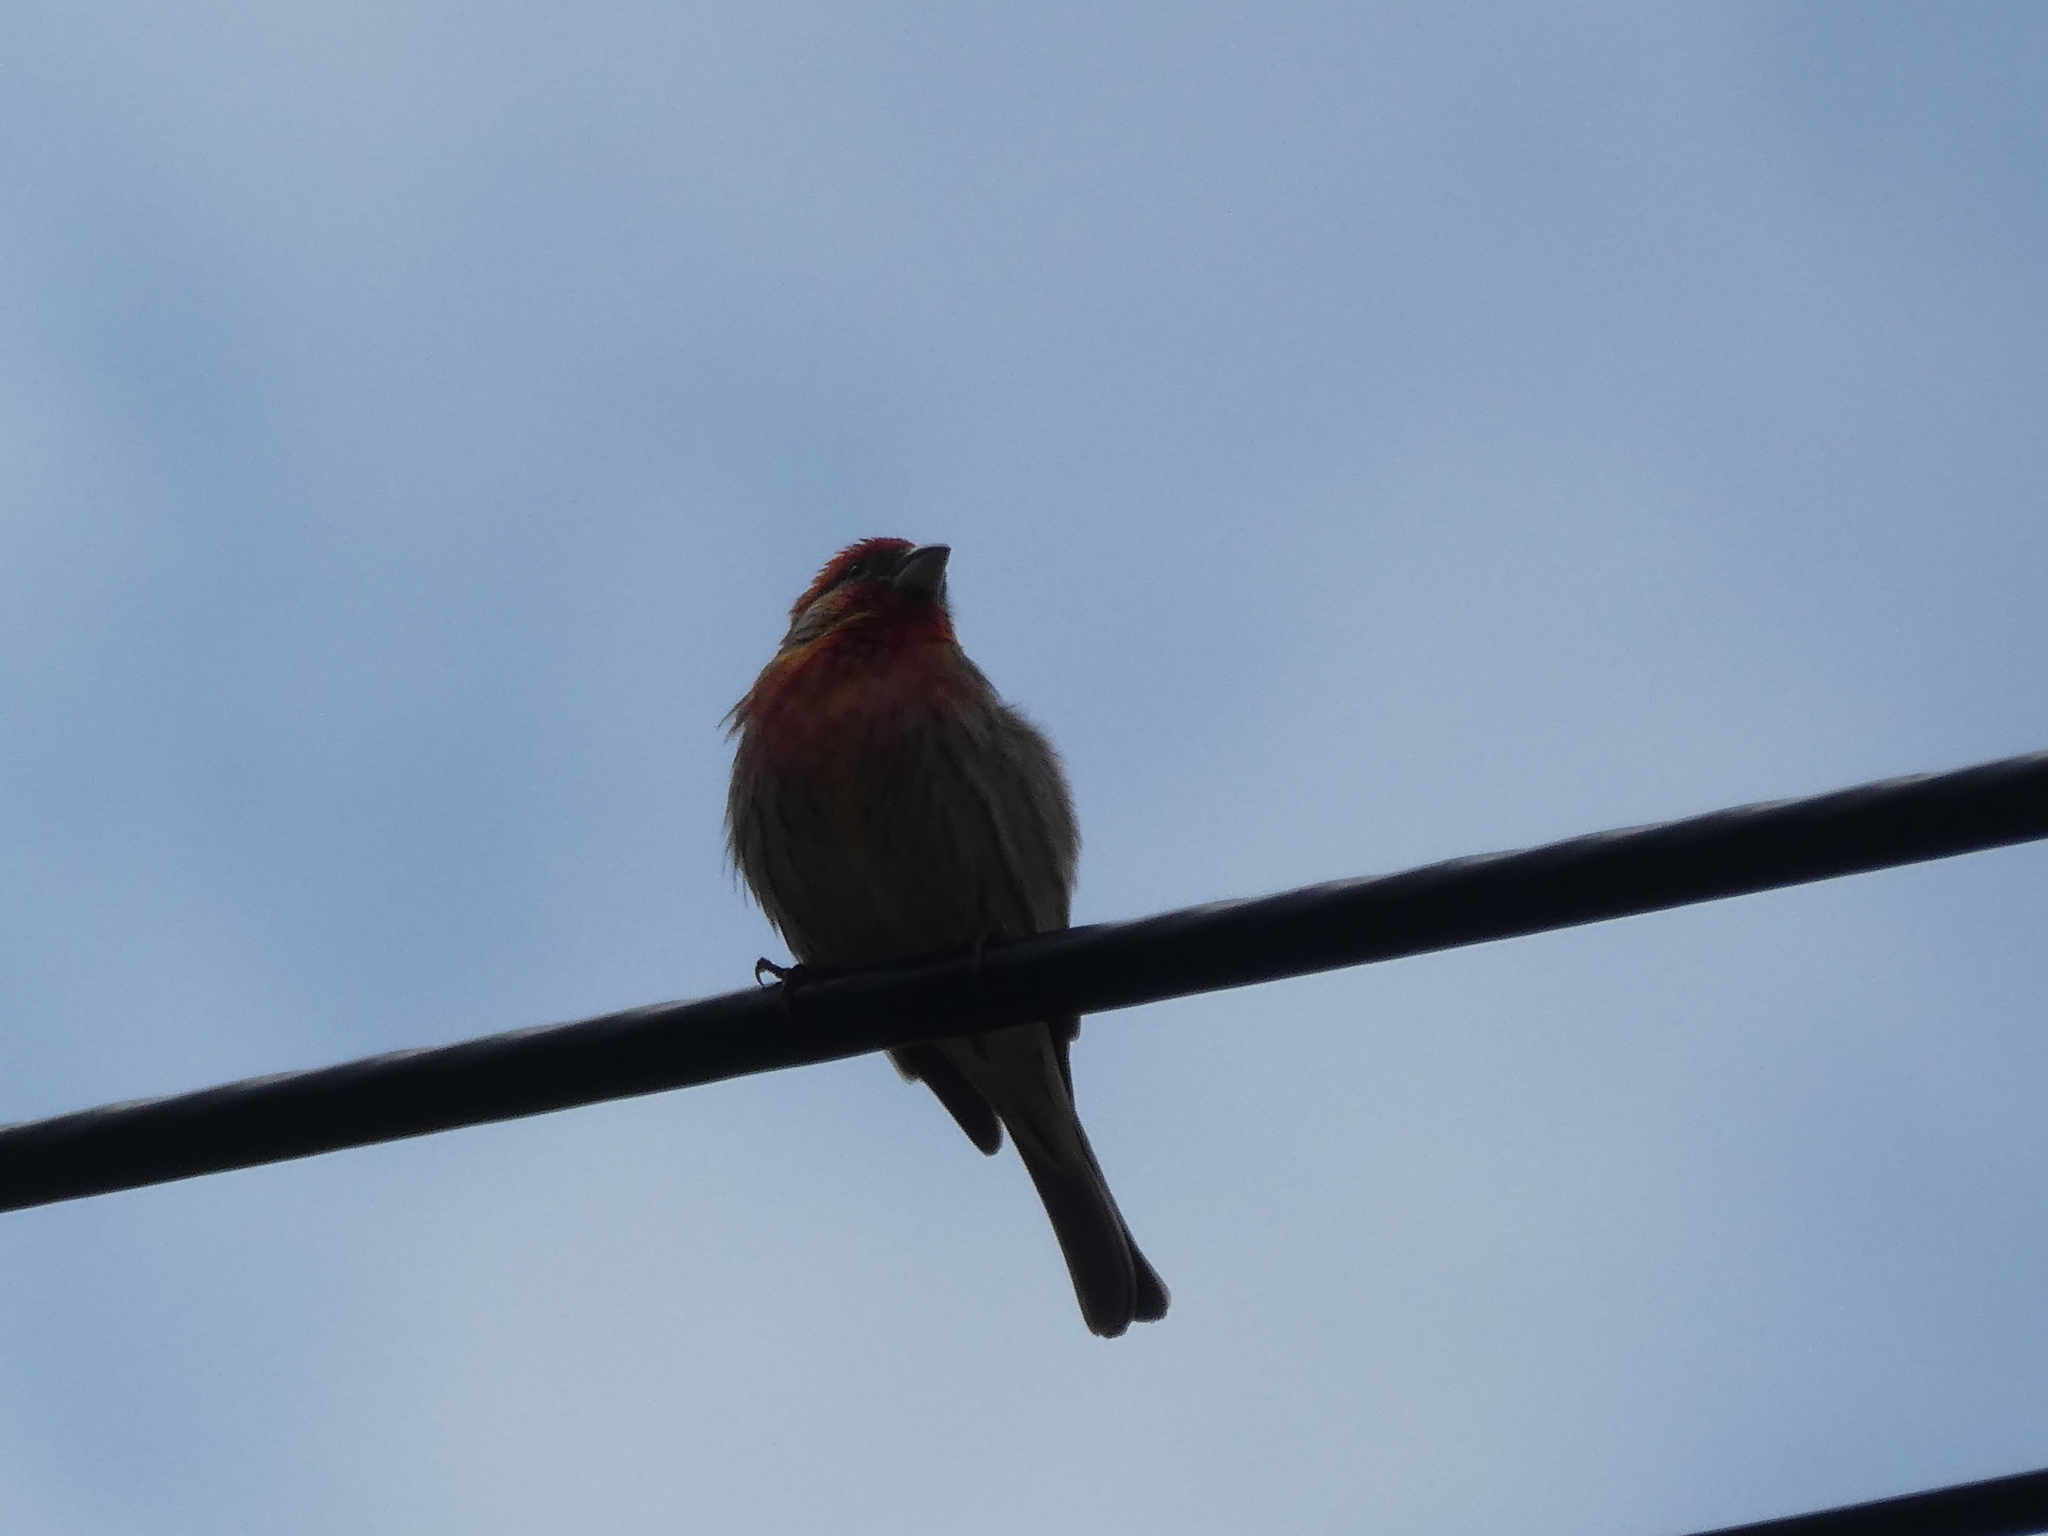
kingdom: Animalia
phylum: Chordata
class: Aves
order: Passeriformes
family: Fringillidae
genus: Haemorhous
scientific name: Haemorhous mexicanus
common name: House finch
